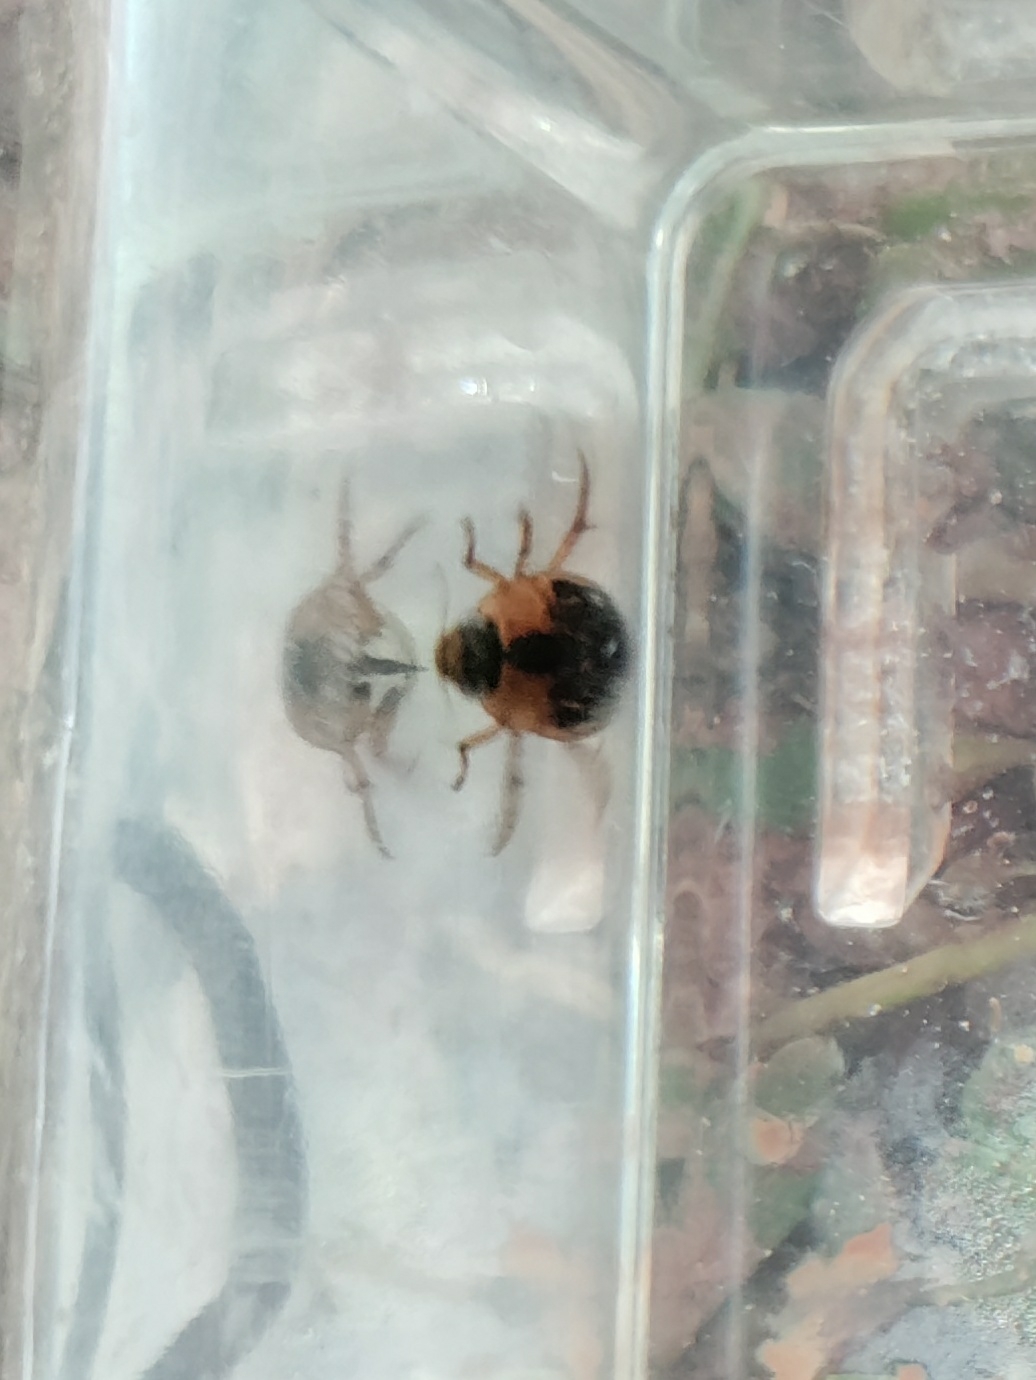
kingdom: Animalia
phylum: Arthropoda
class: Insecta
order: Coleoptera
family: Hydrophilidae
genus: Tropisternus
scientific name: Tropisternus collaris
